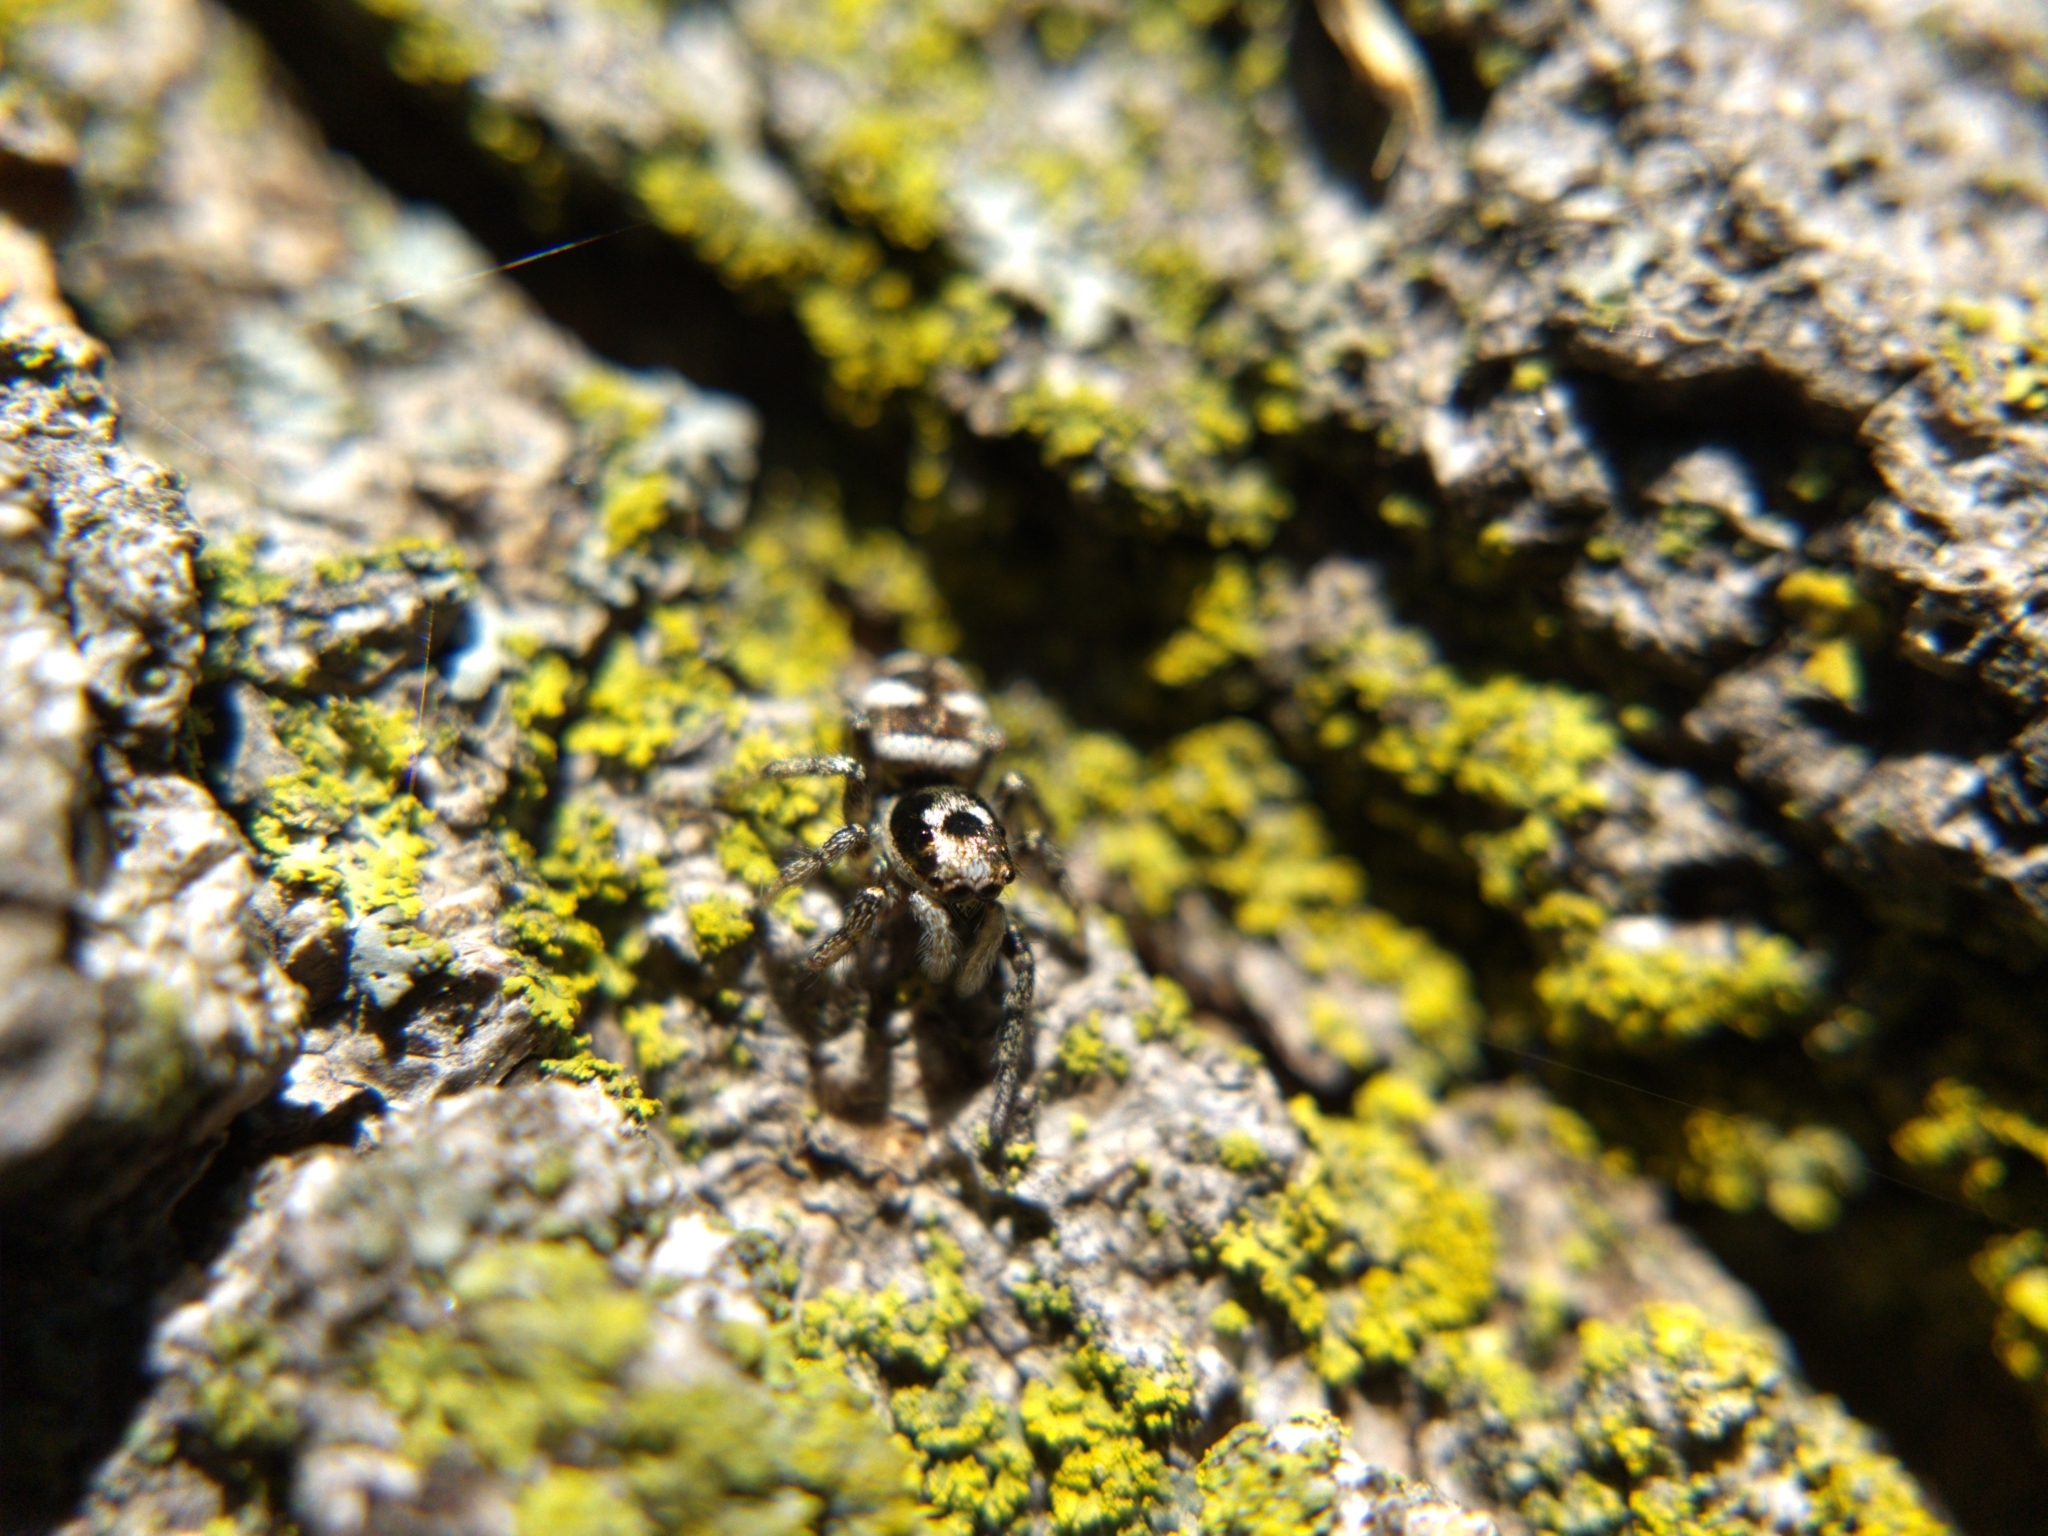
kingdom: Animalia
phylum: Arthropoda
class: Arachnida
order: Araneae
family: Salticidae
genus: Salticus
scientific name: Salticus scenicus
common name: Zebra jumper
